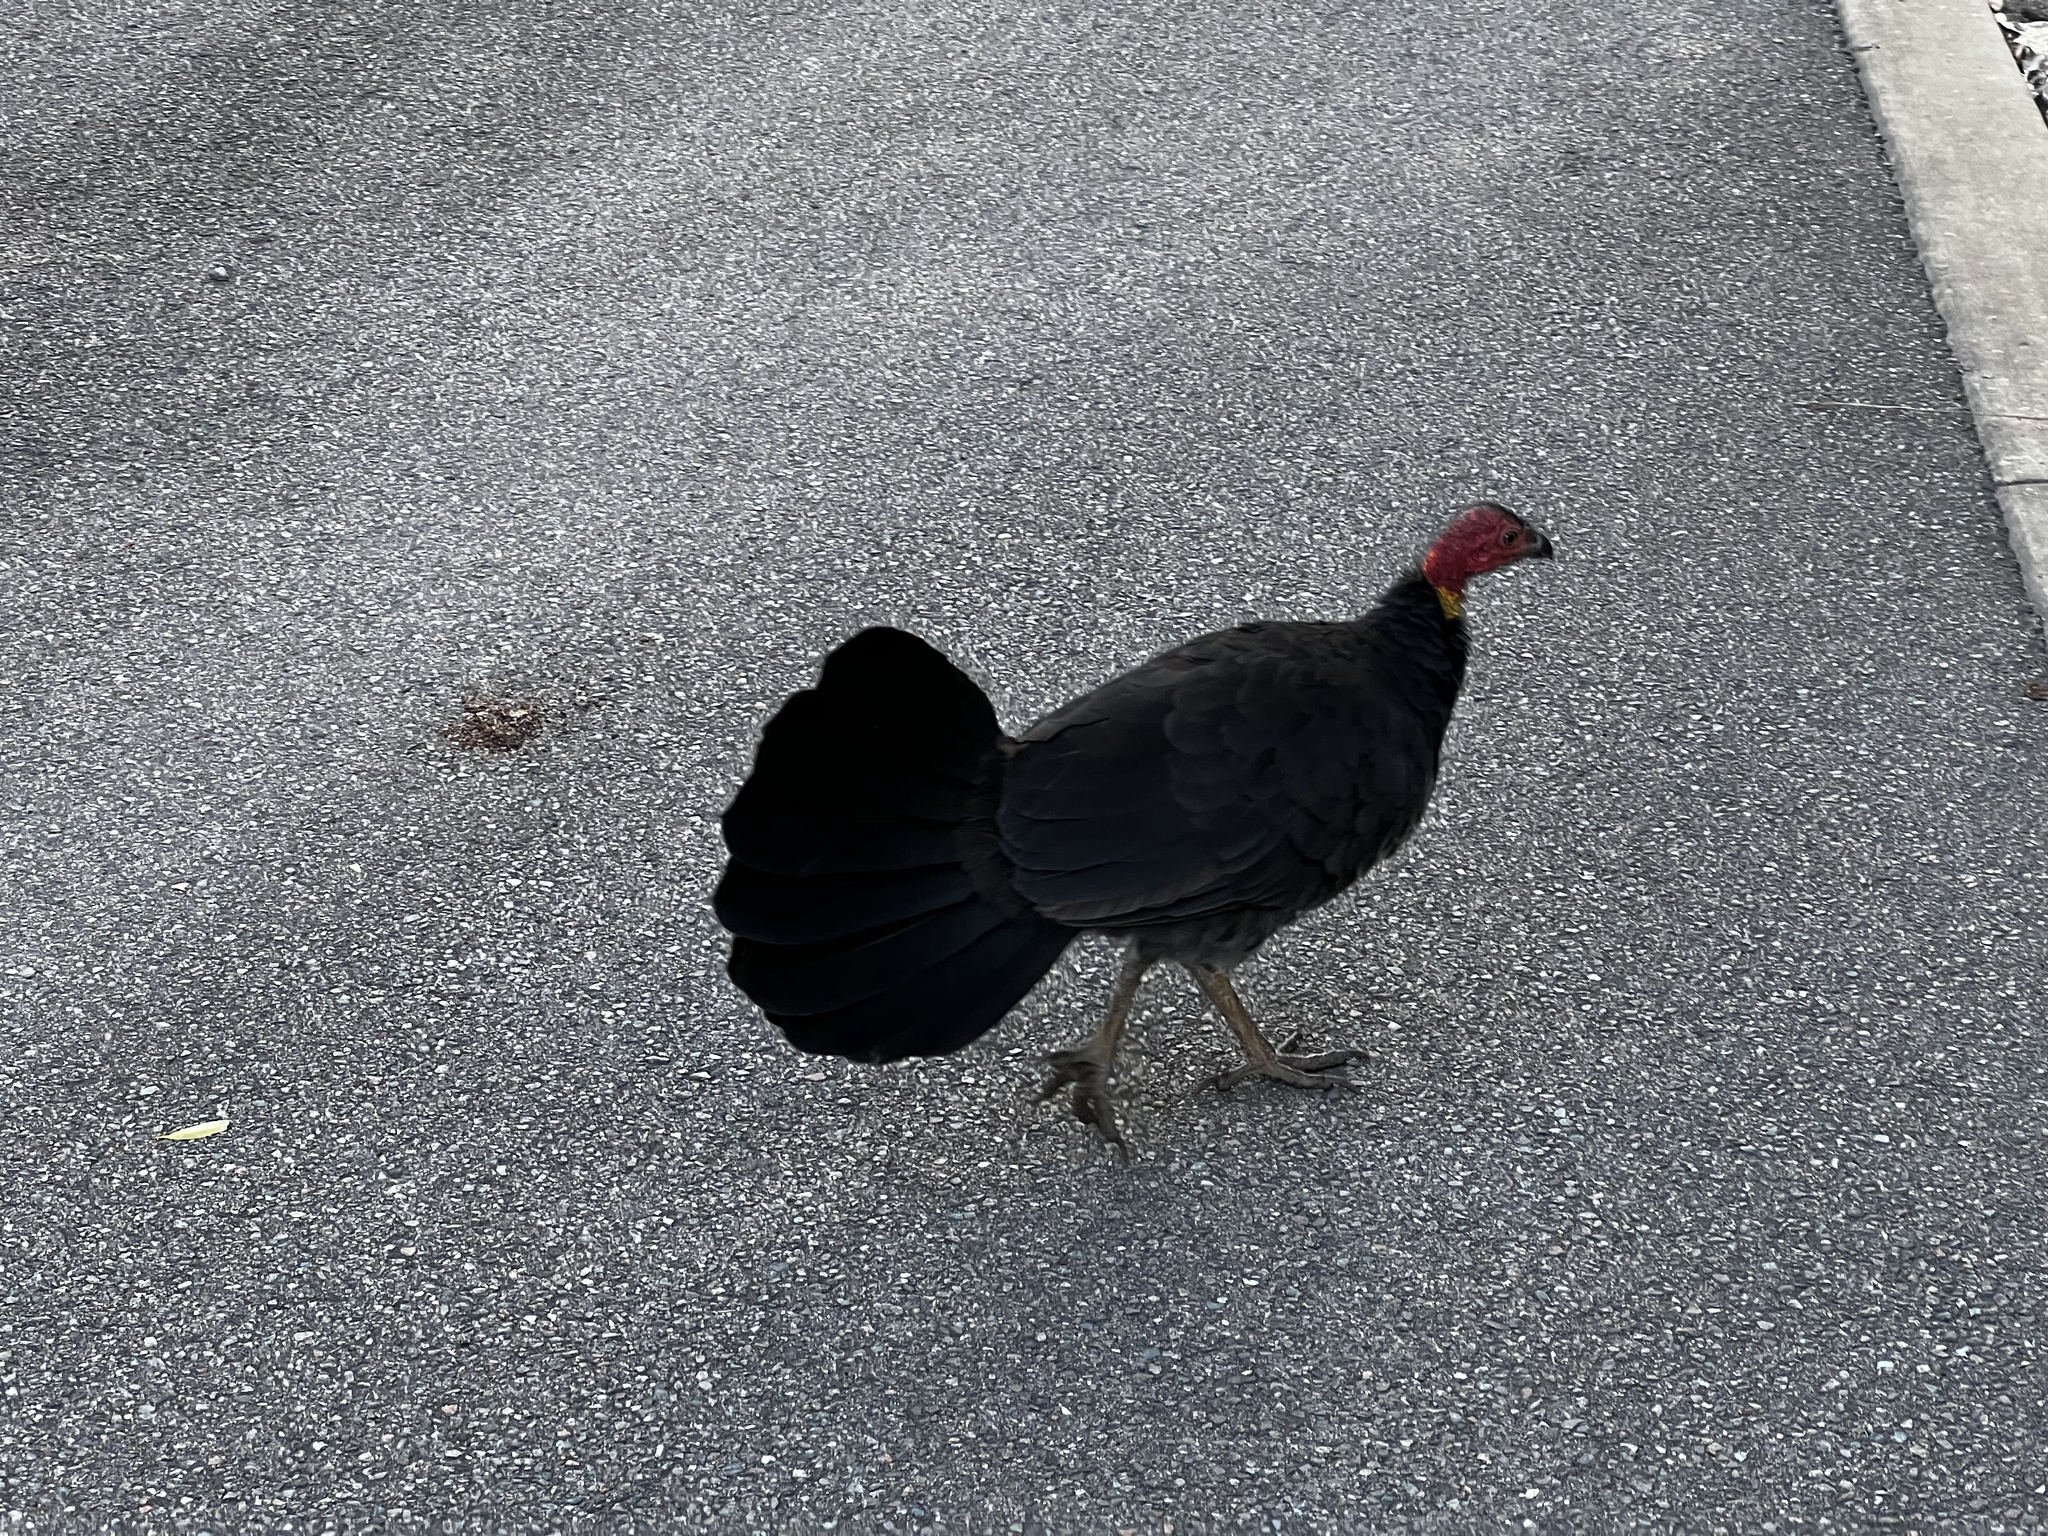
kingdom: Animalia
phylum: Chordata
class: Aves
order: Galliformes
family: Megapodiidae
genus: Alectura
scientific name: Alectura lathami
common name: Australian brushturkey
